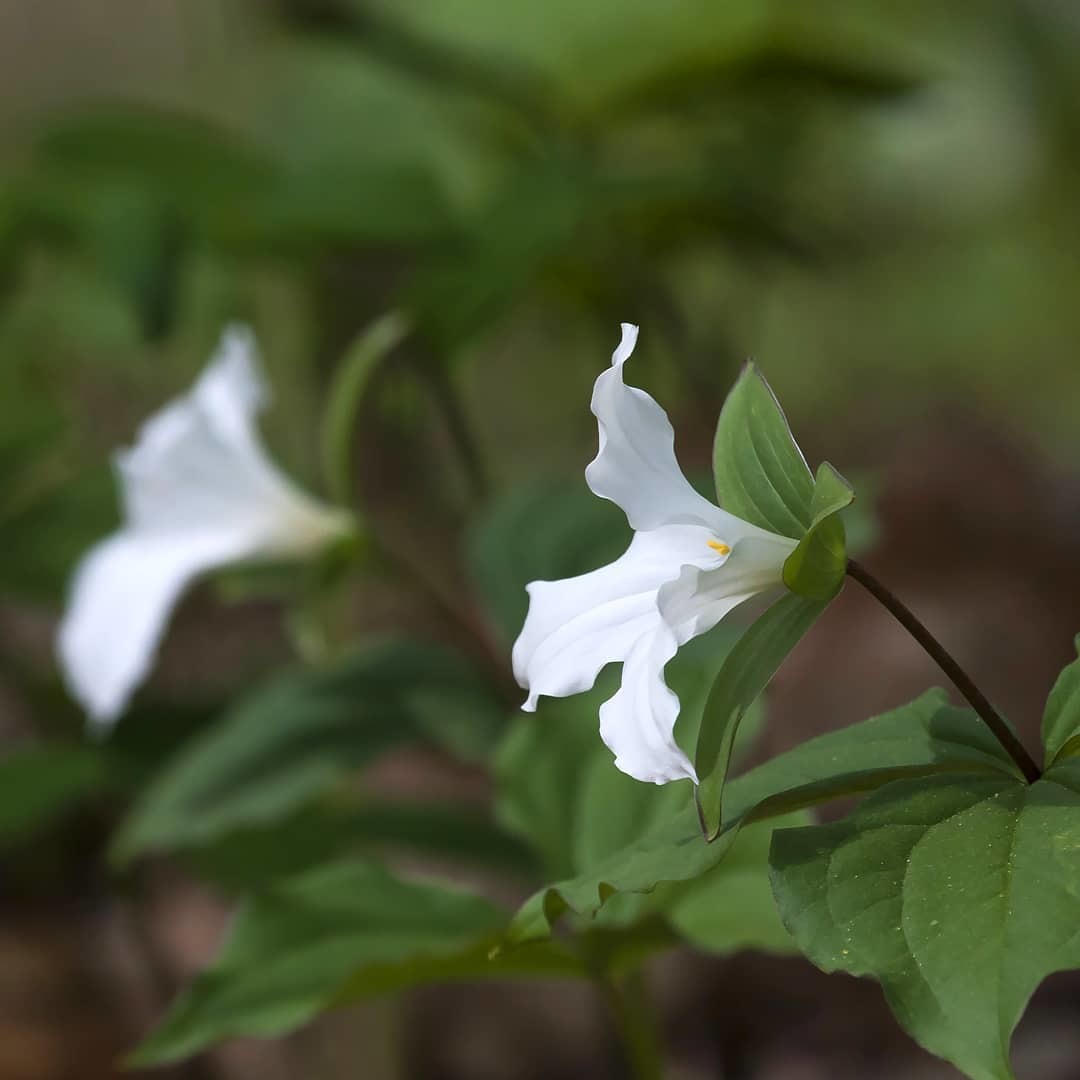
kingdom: Plantae
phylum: Tracheophyta
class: Liliopsida
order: Liliales
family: Melanthiaceae
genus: Trillium
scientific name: Trillium grandiflorum
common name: Great white trillium
